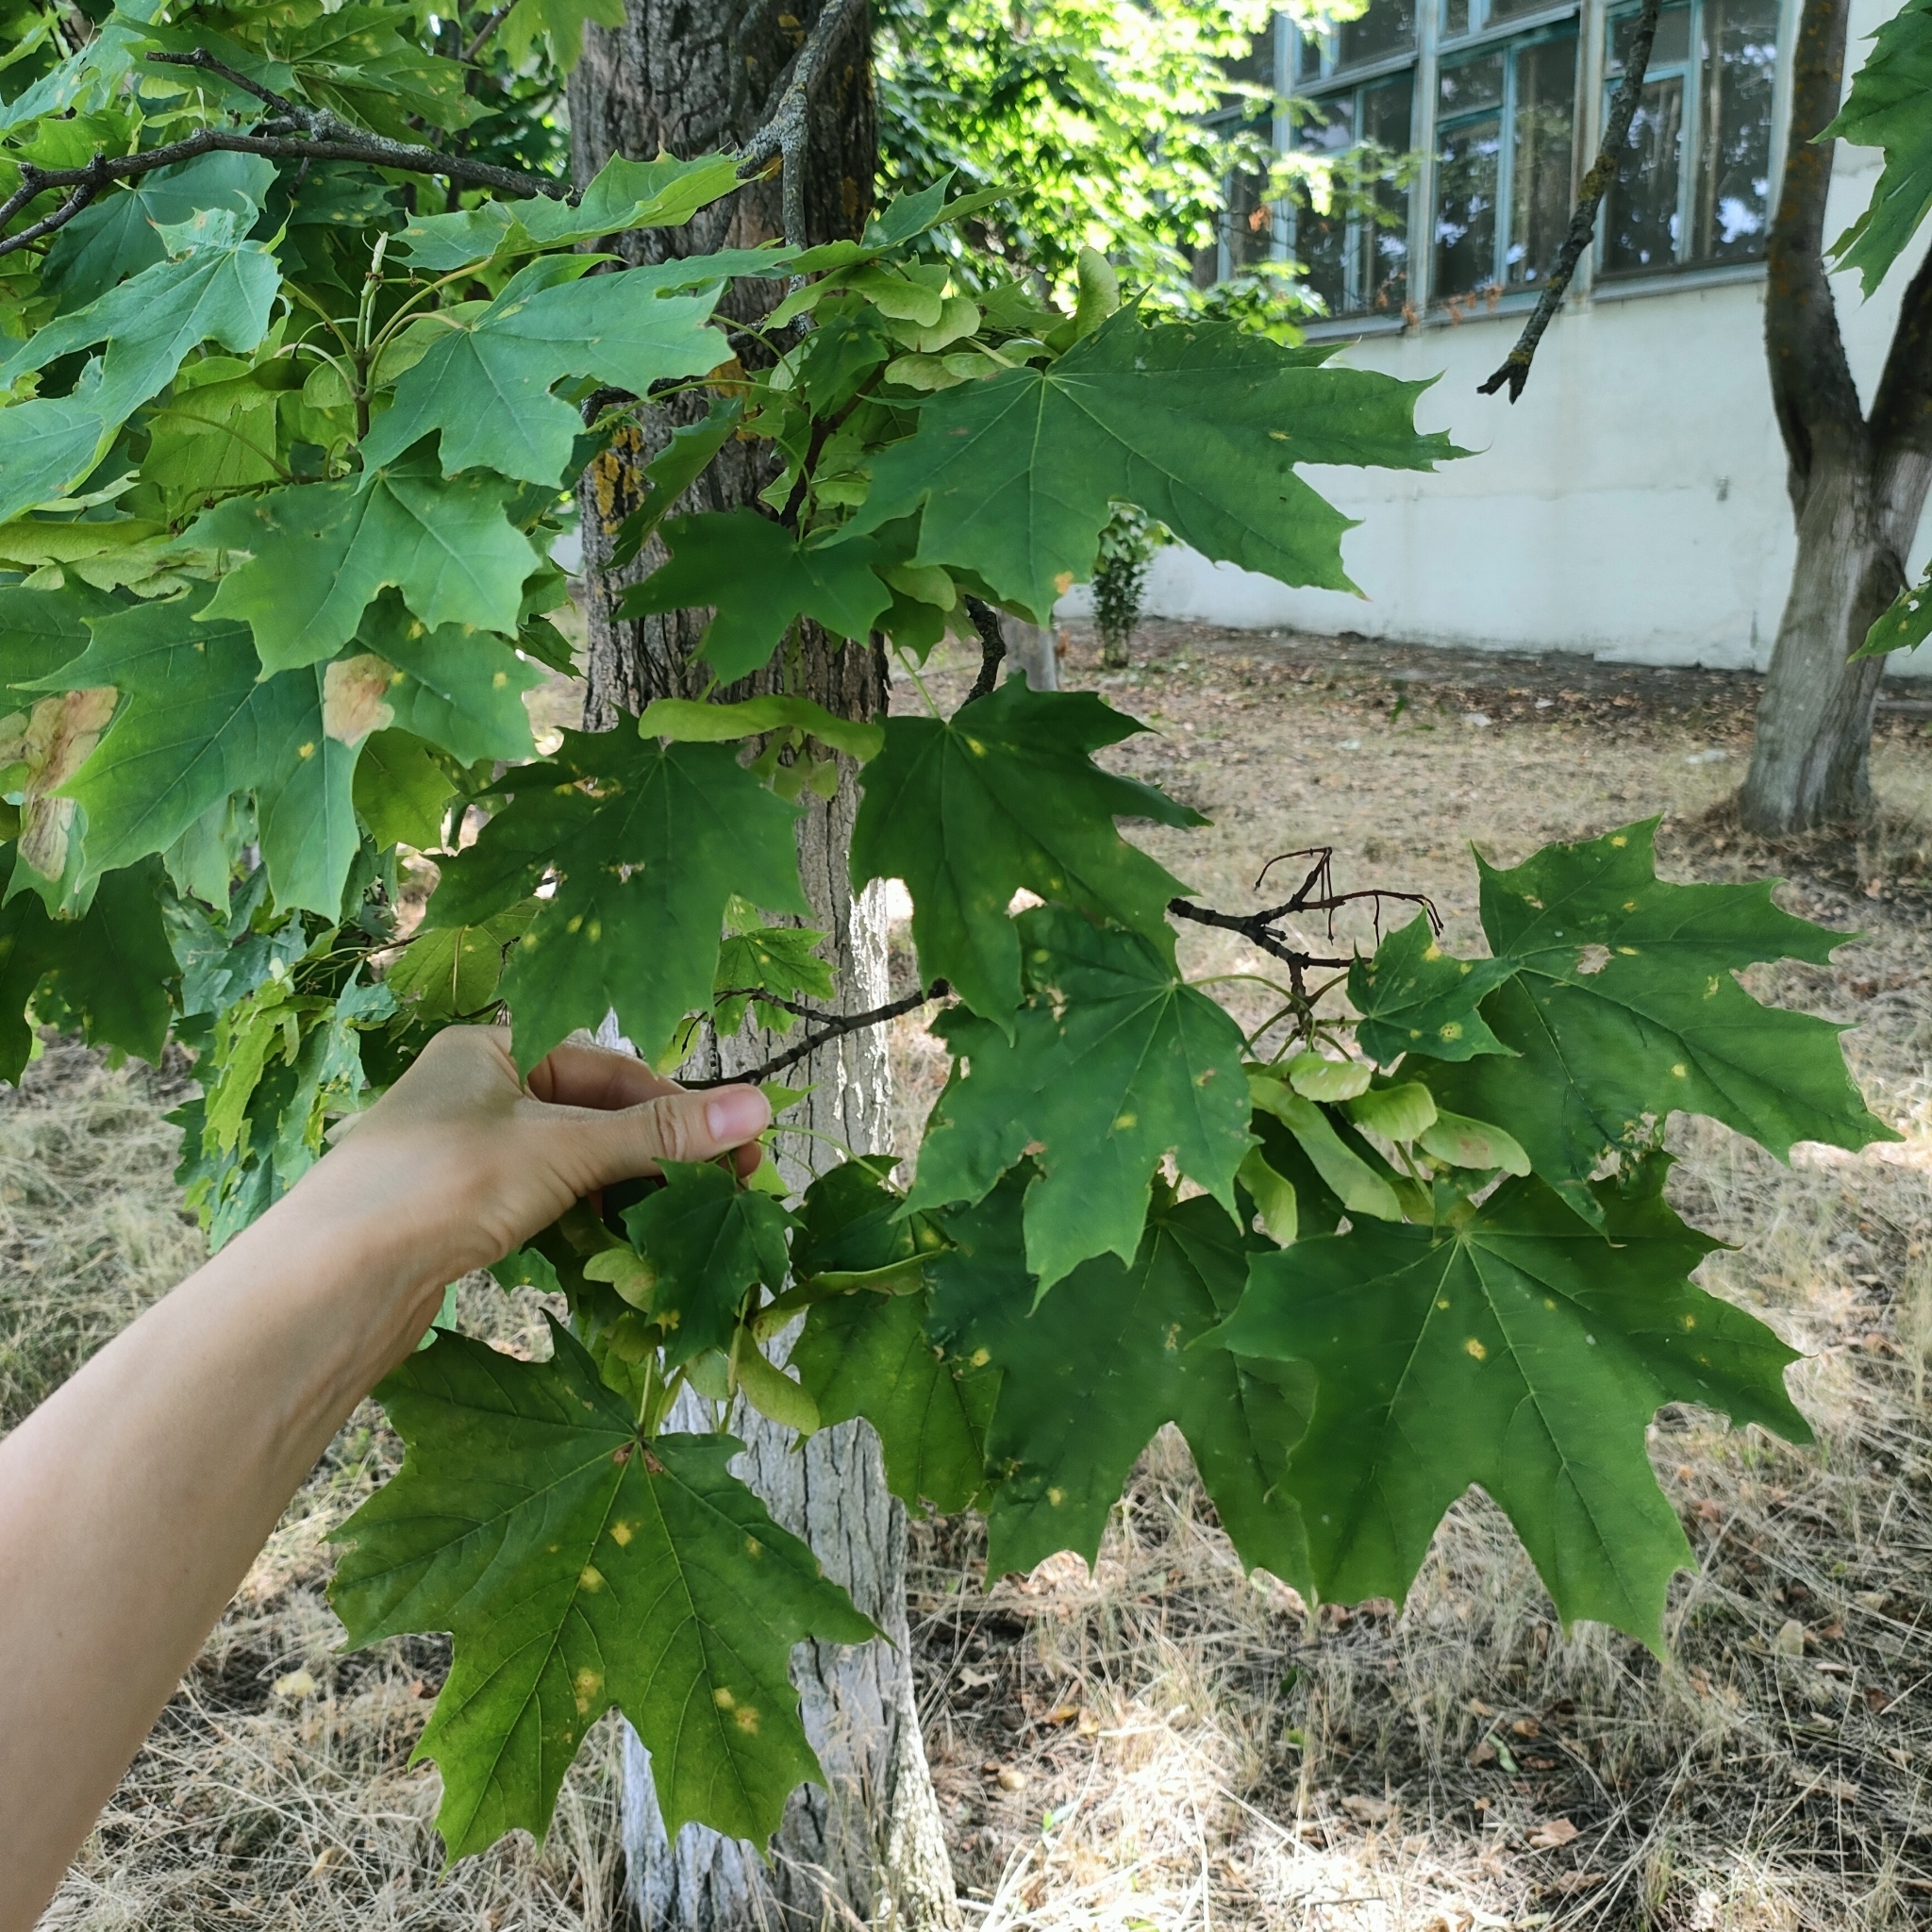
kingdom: Plantae
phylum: Tracheophyta
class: Magnoliopsida
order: Sapindales
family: Sapindaceae
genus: Acer
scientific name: Acer platanoides
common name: Norway maple
